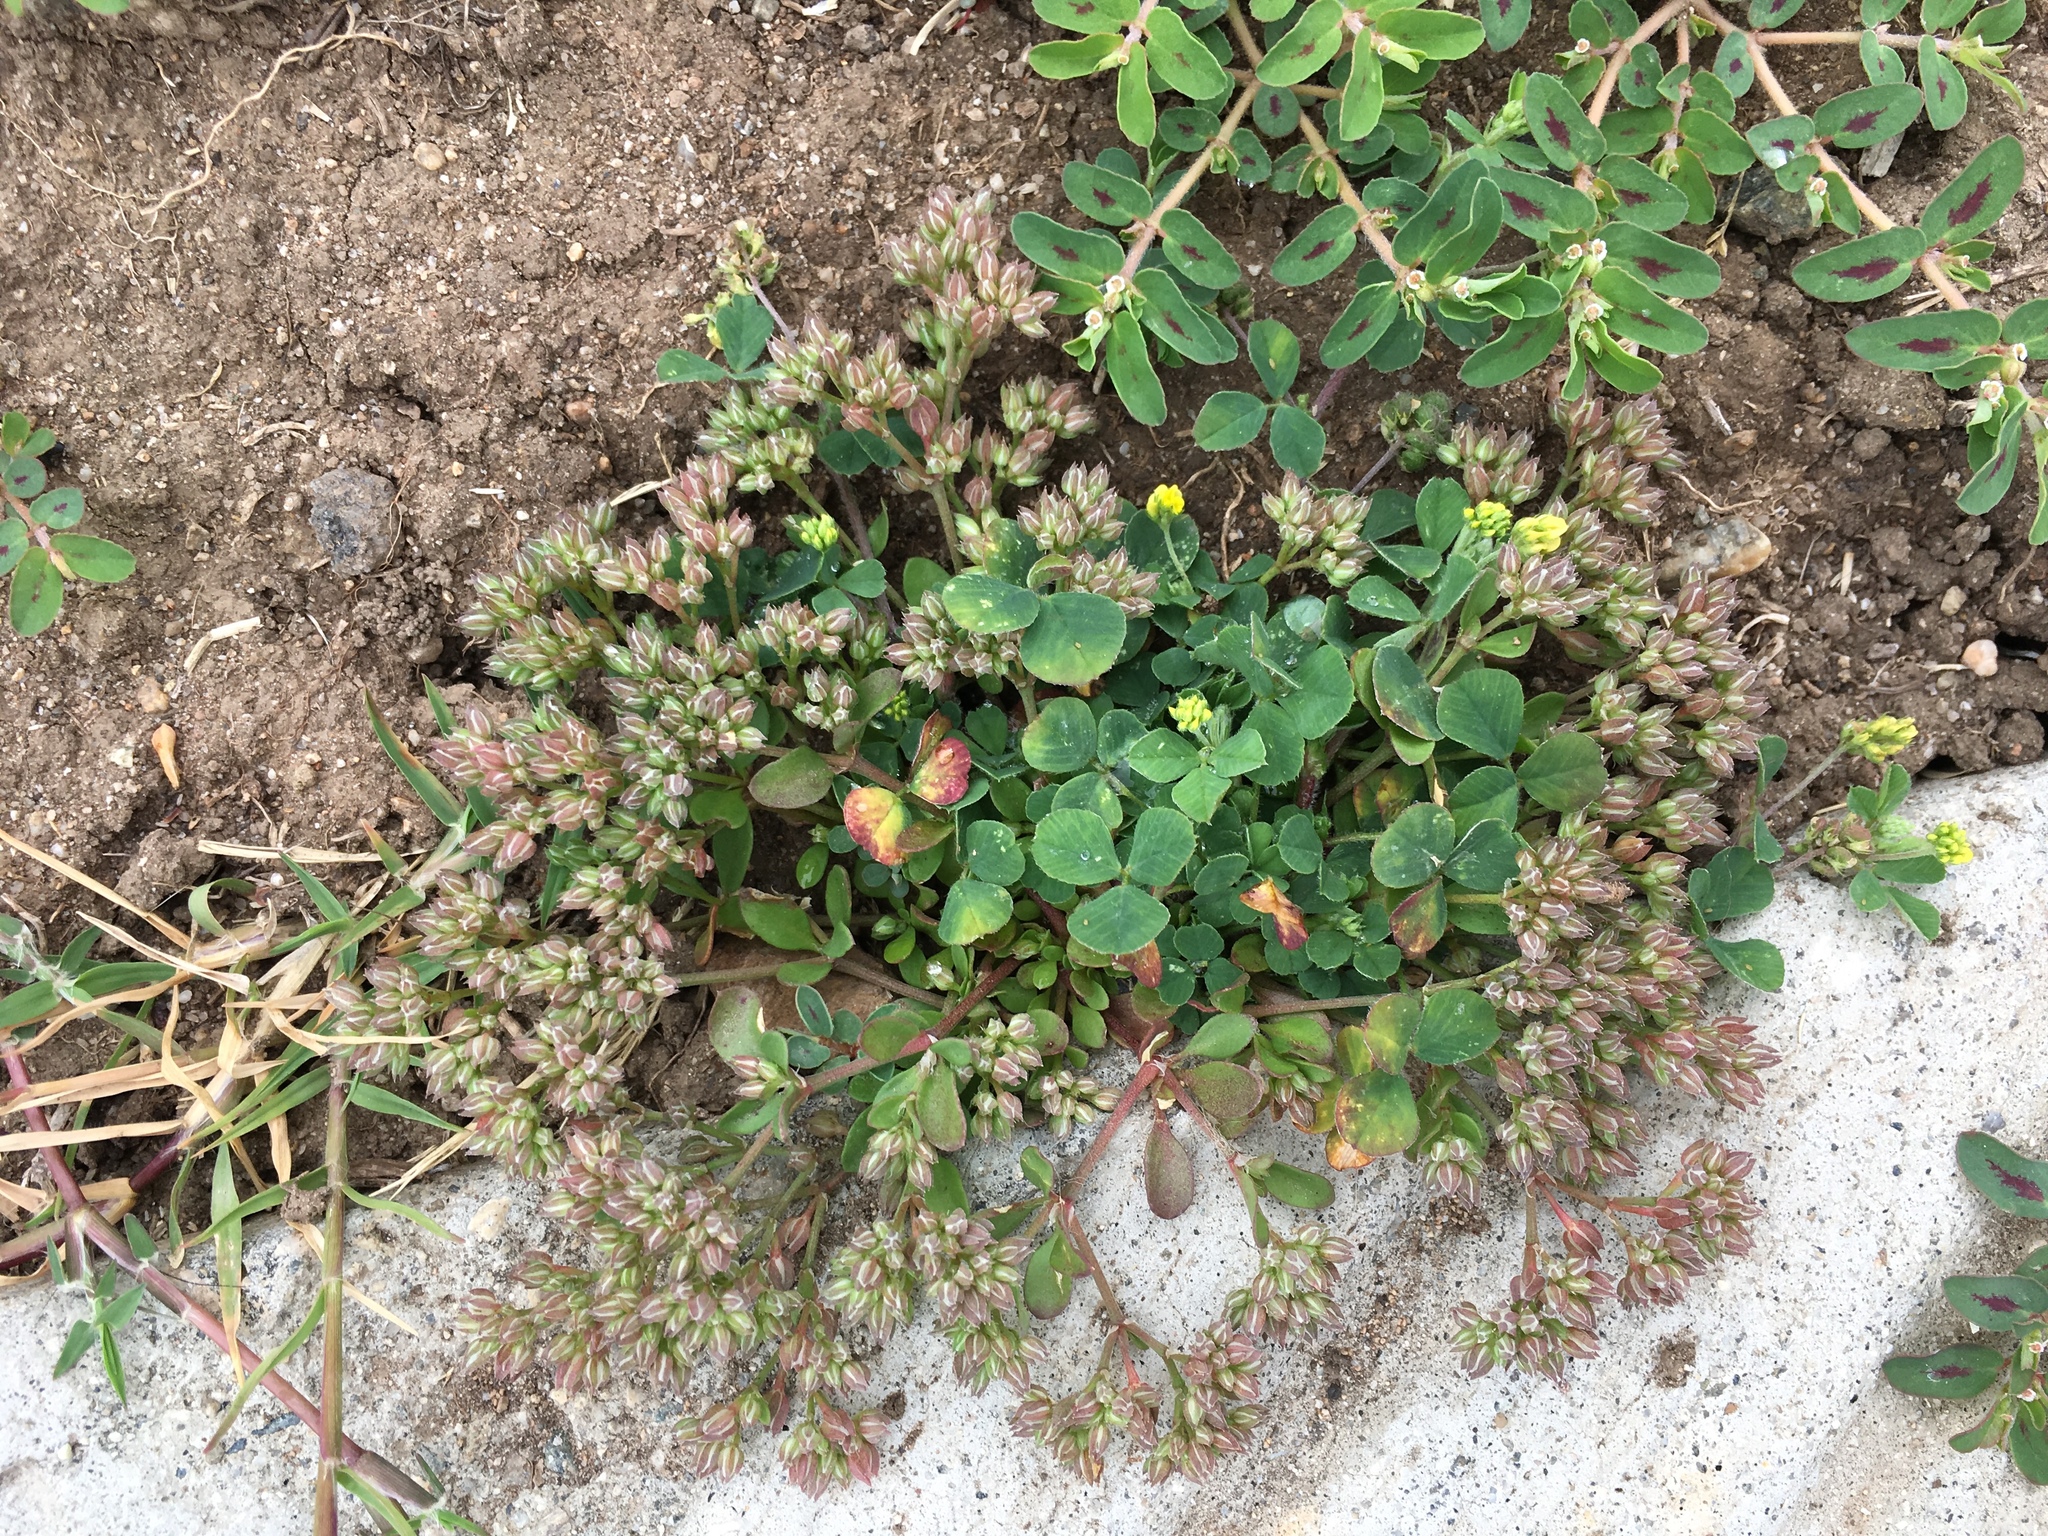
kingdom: Plantae
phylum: Tracheophyta
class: Magnoliopsida
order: Caryophyllales
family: Caryophyllaceae
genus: Polycarpon
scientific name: Polycarpon tetraphyllum
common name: Four-leaved all-seed
